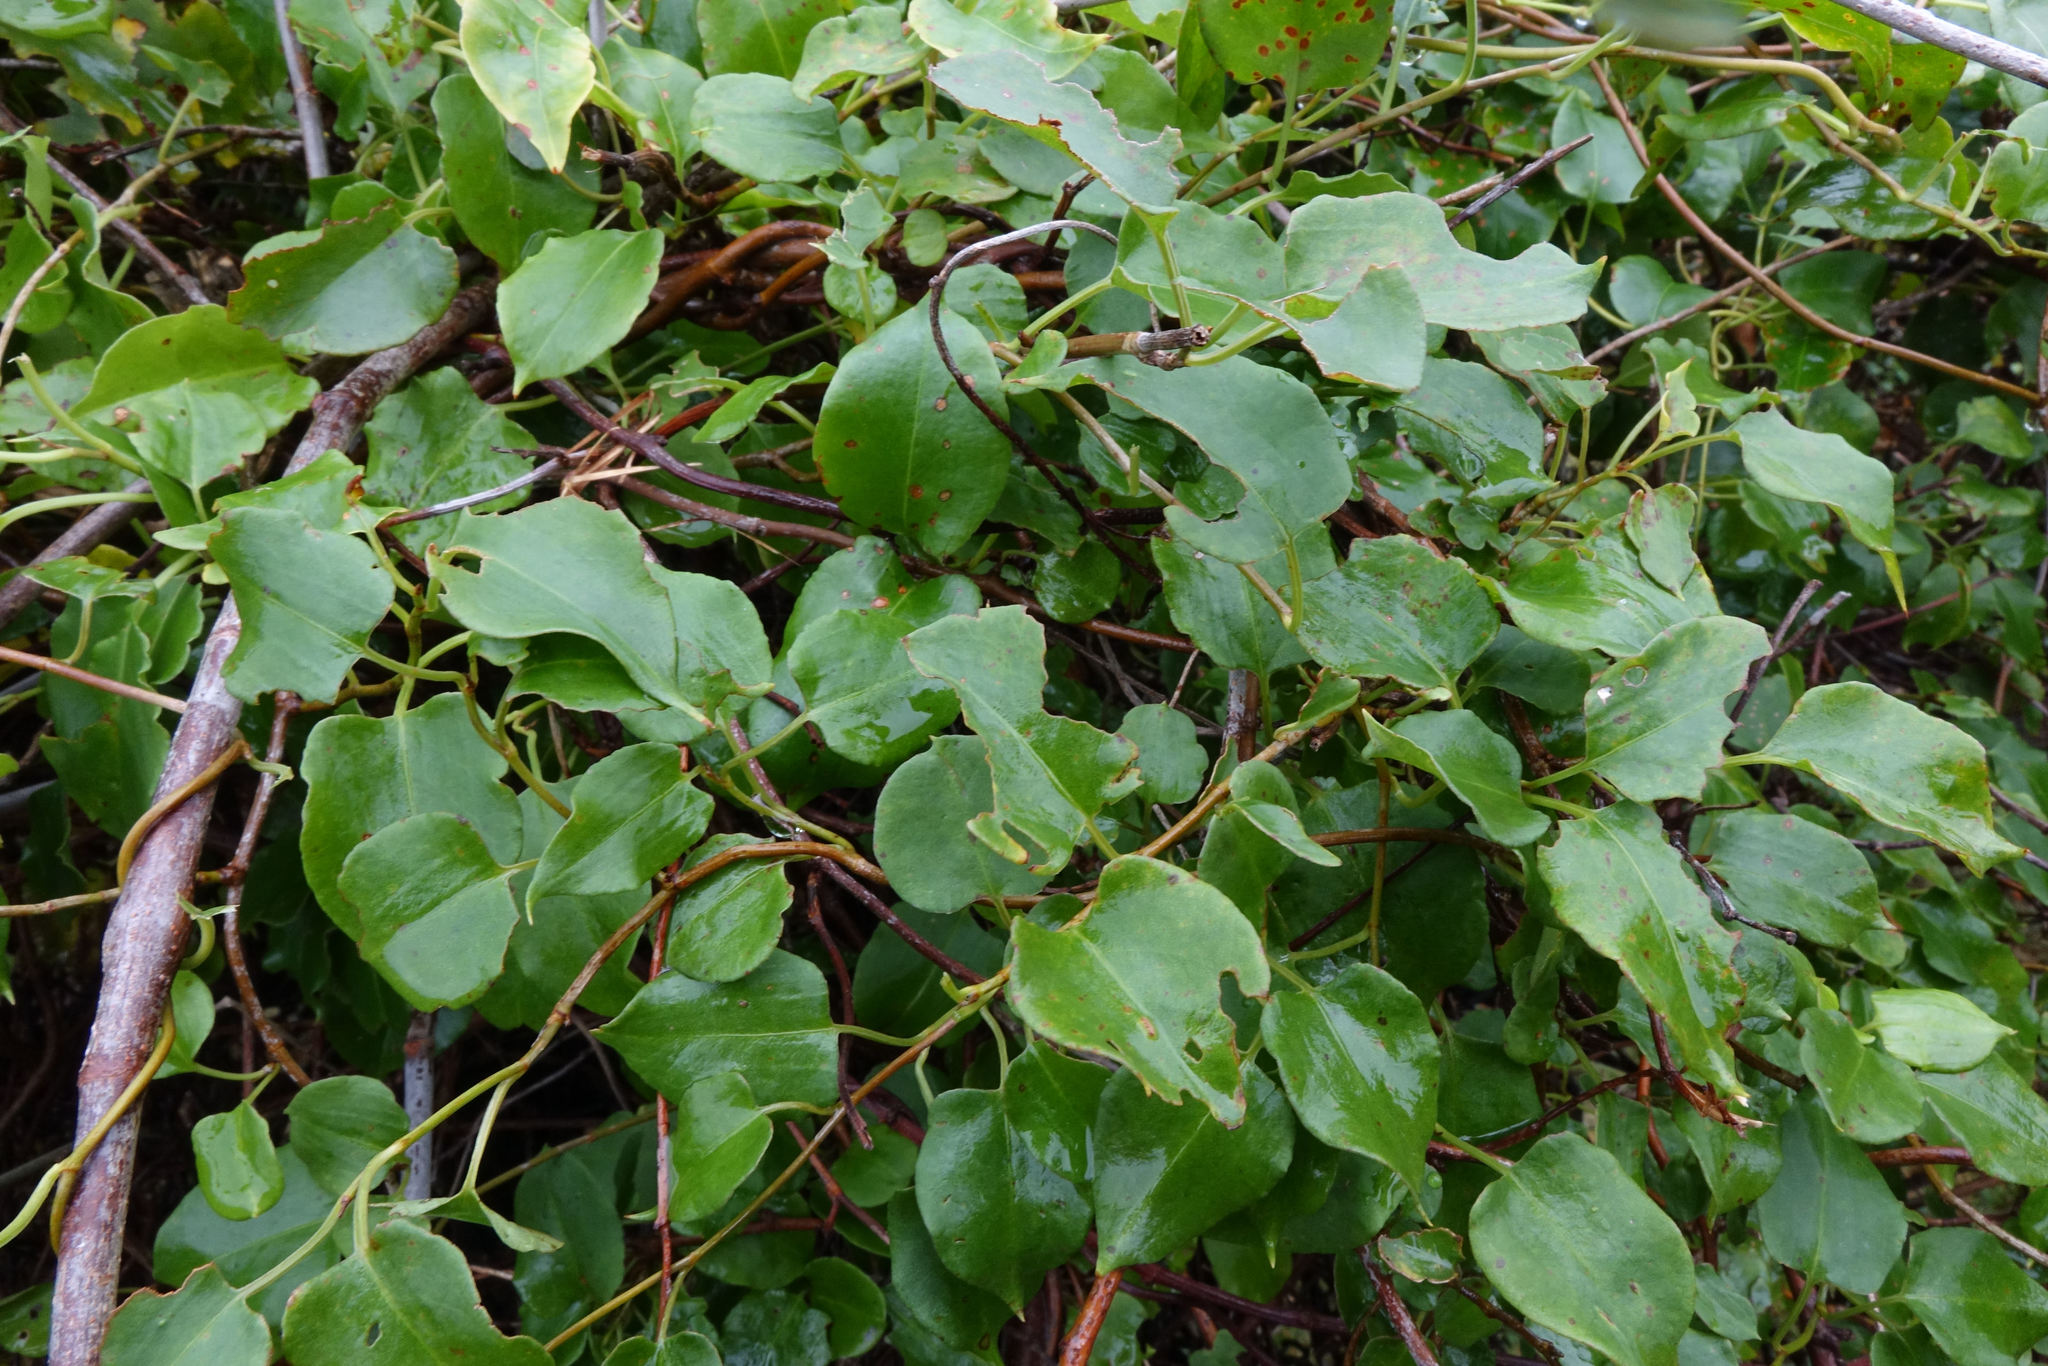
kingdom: Plantae
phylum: Tracheophyta
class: Magnoliopsida
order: Caryophyllales
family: Polygonaceae
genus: Muehlenbeckia
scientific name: Muehlenbeckia australis
